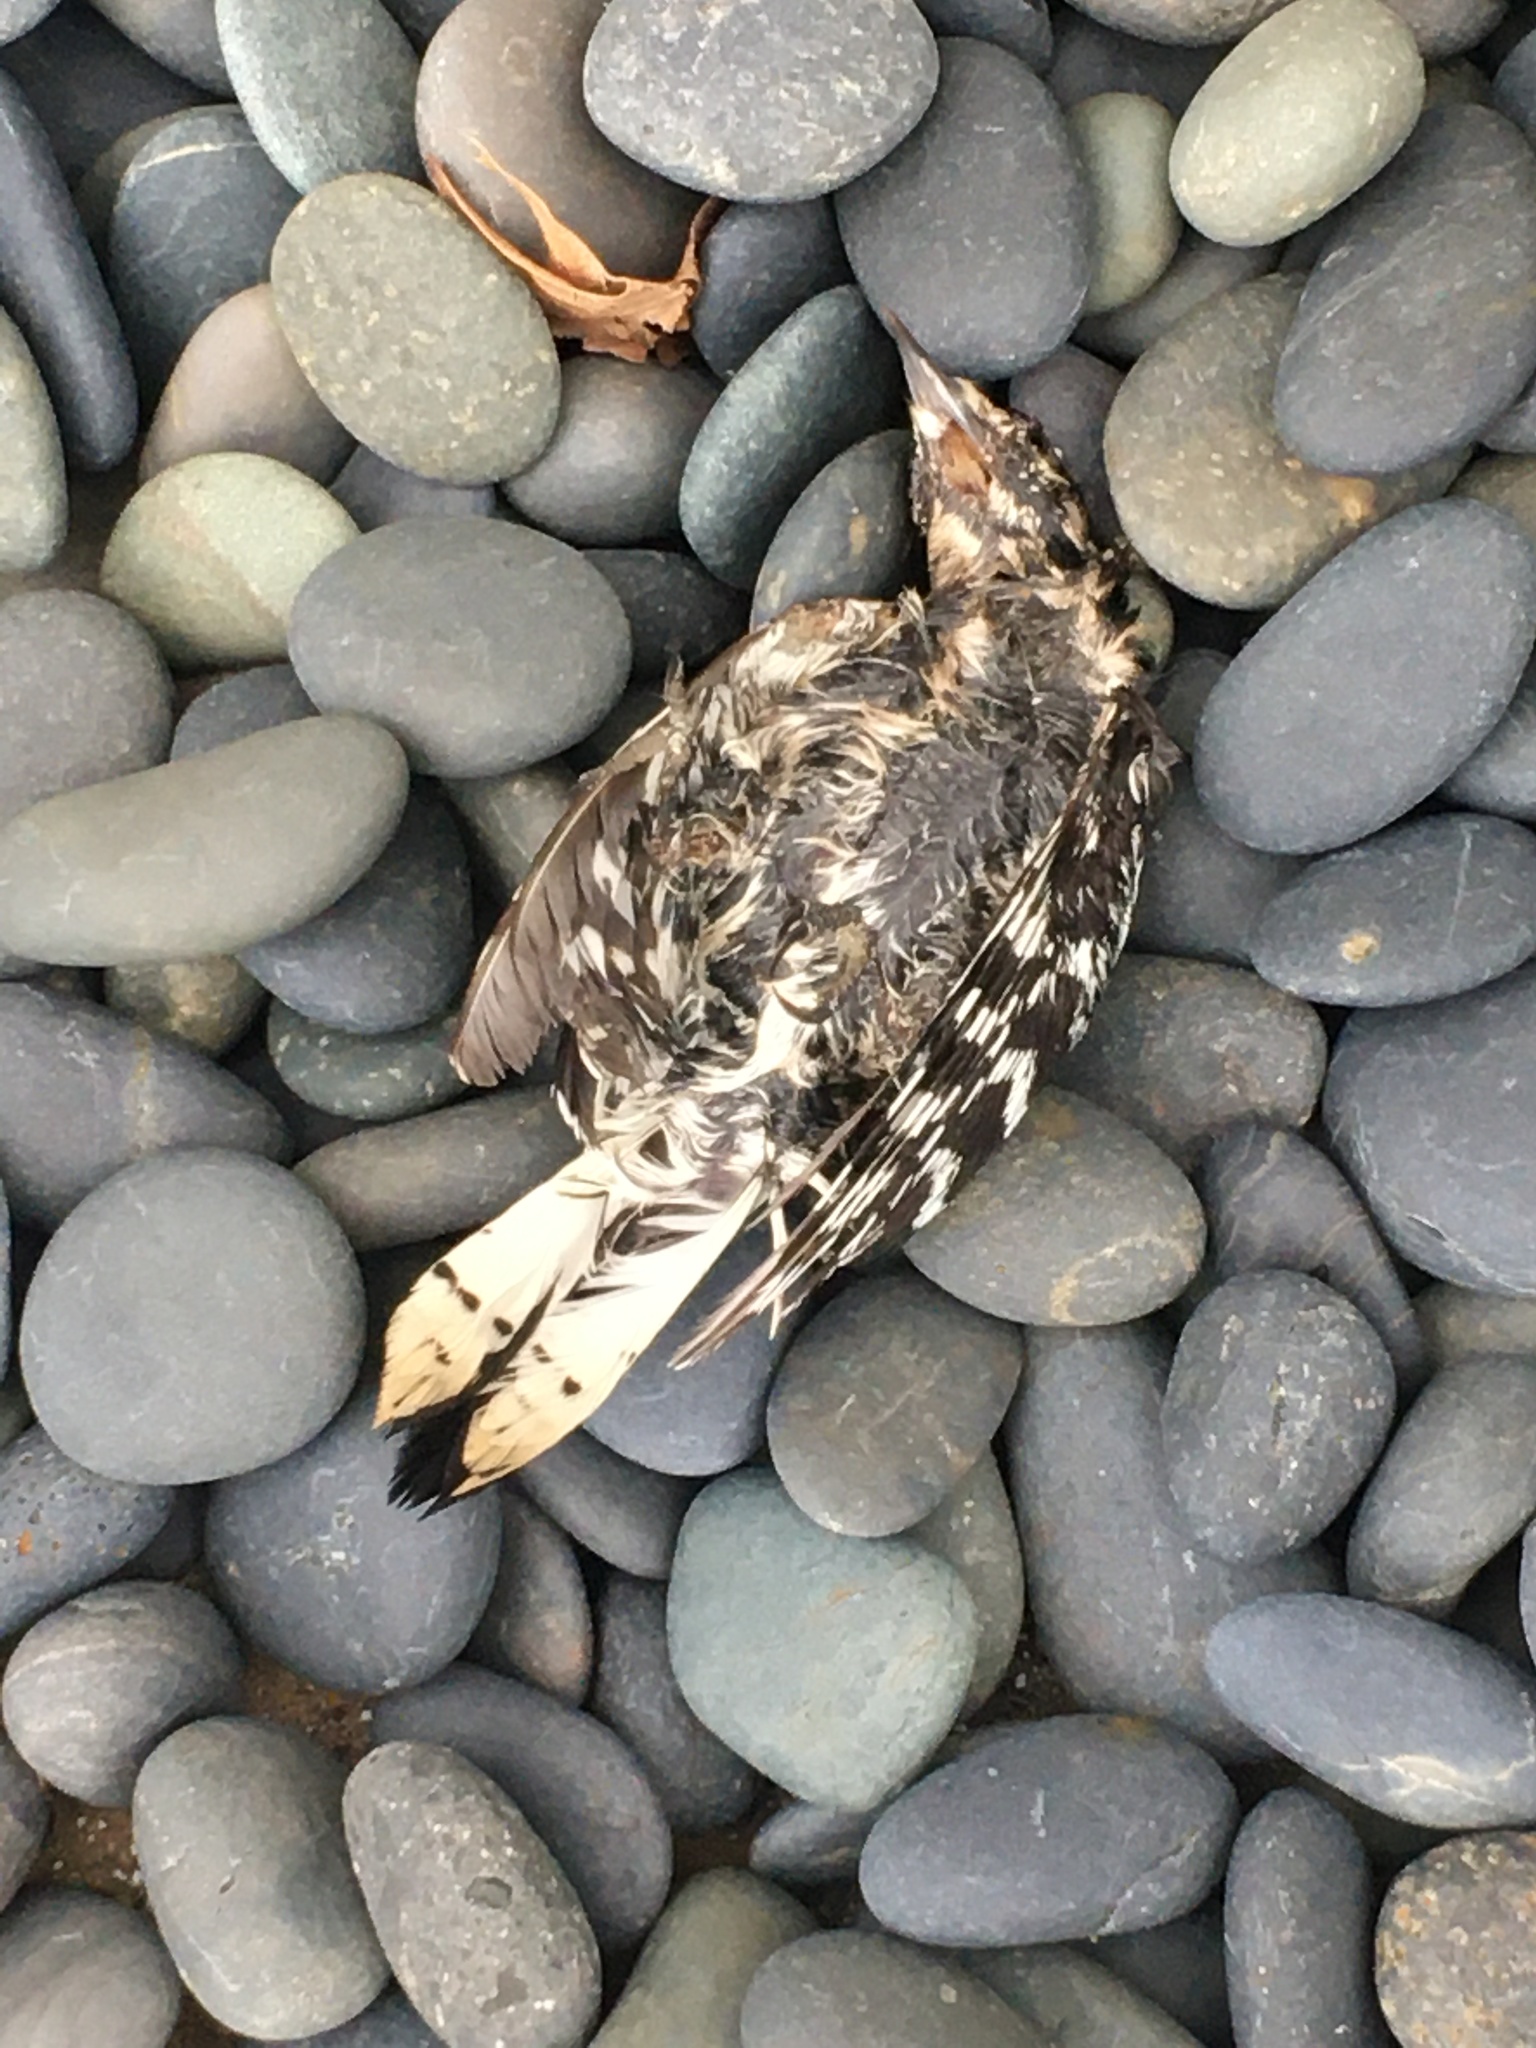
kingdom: Animalia
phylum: Chordata
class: Aves
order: Piciformes
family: Picidae
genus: Dryobates
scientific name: Dryobates pubescens
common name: Downy woodpecker
